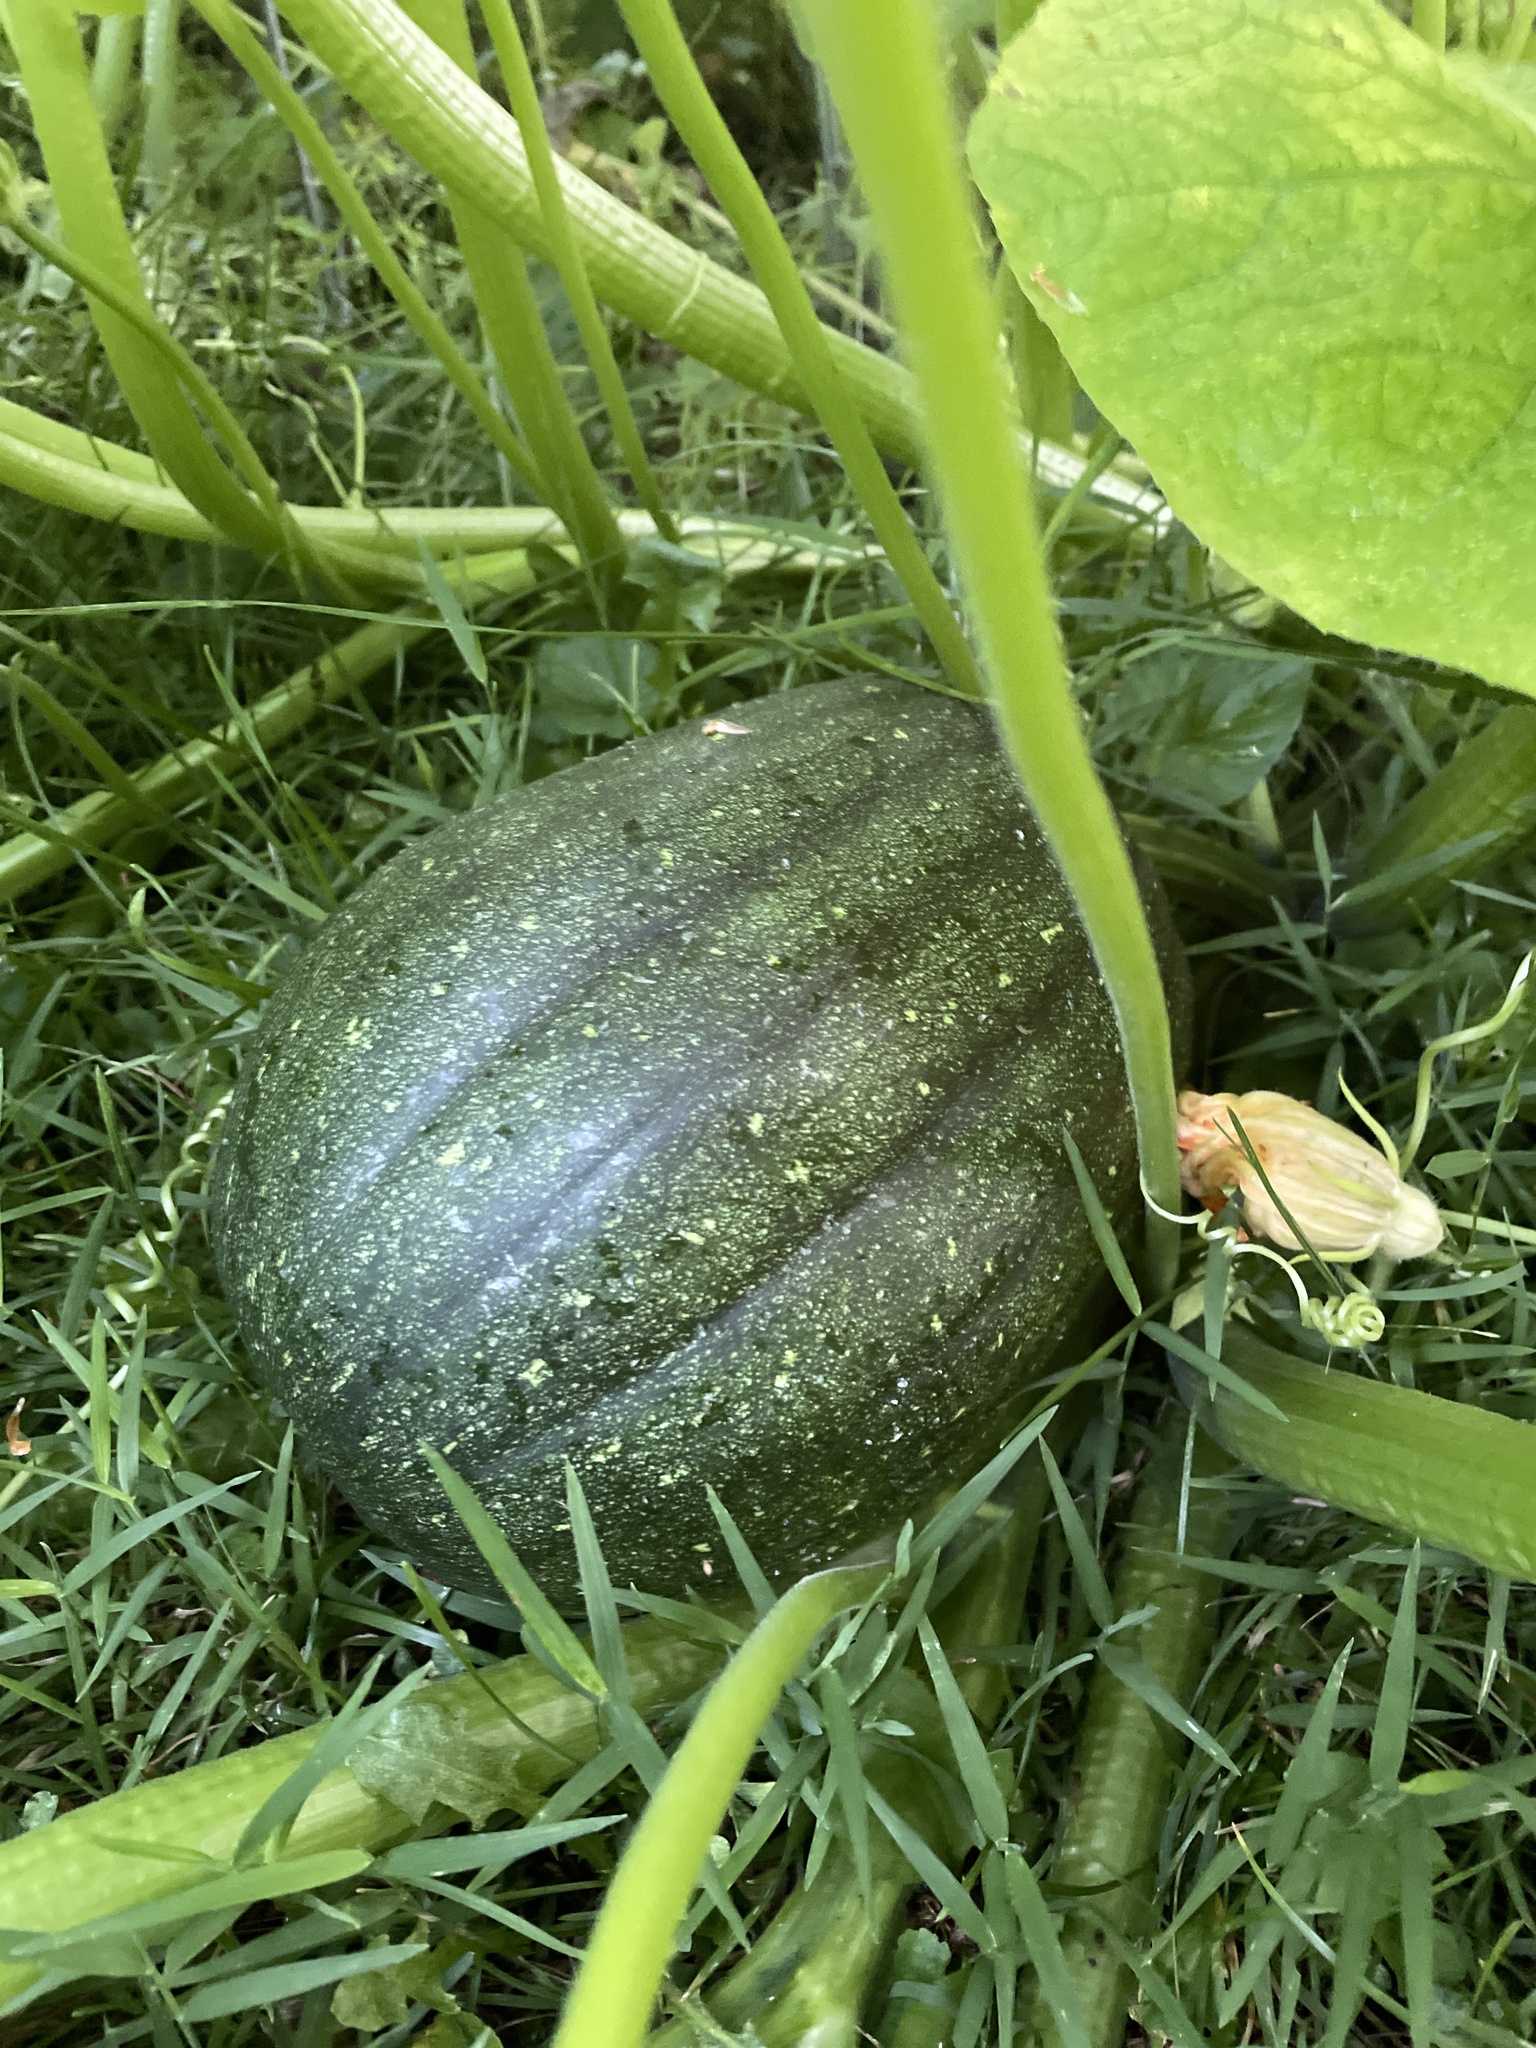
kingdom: Plantae
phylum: Tracheophyta
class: Magnoliopsida
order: Cucurbitales
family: Cucurbitaceae
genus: Cucurbita
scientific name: Cucurbita moschata
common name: Squash / pumpkin
